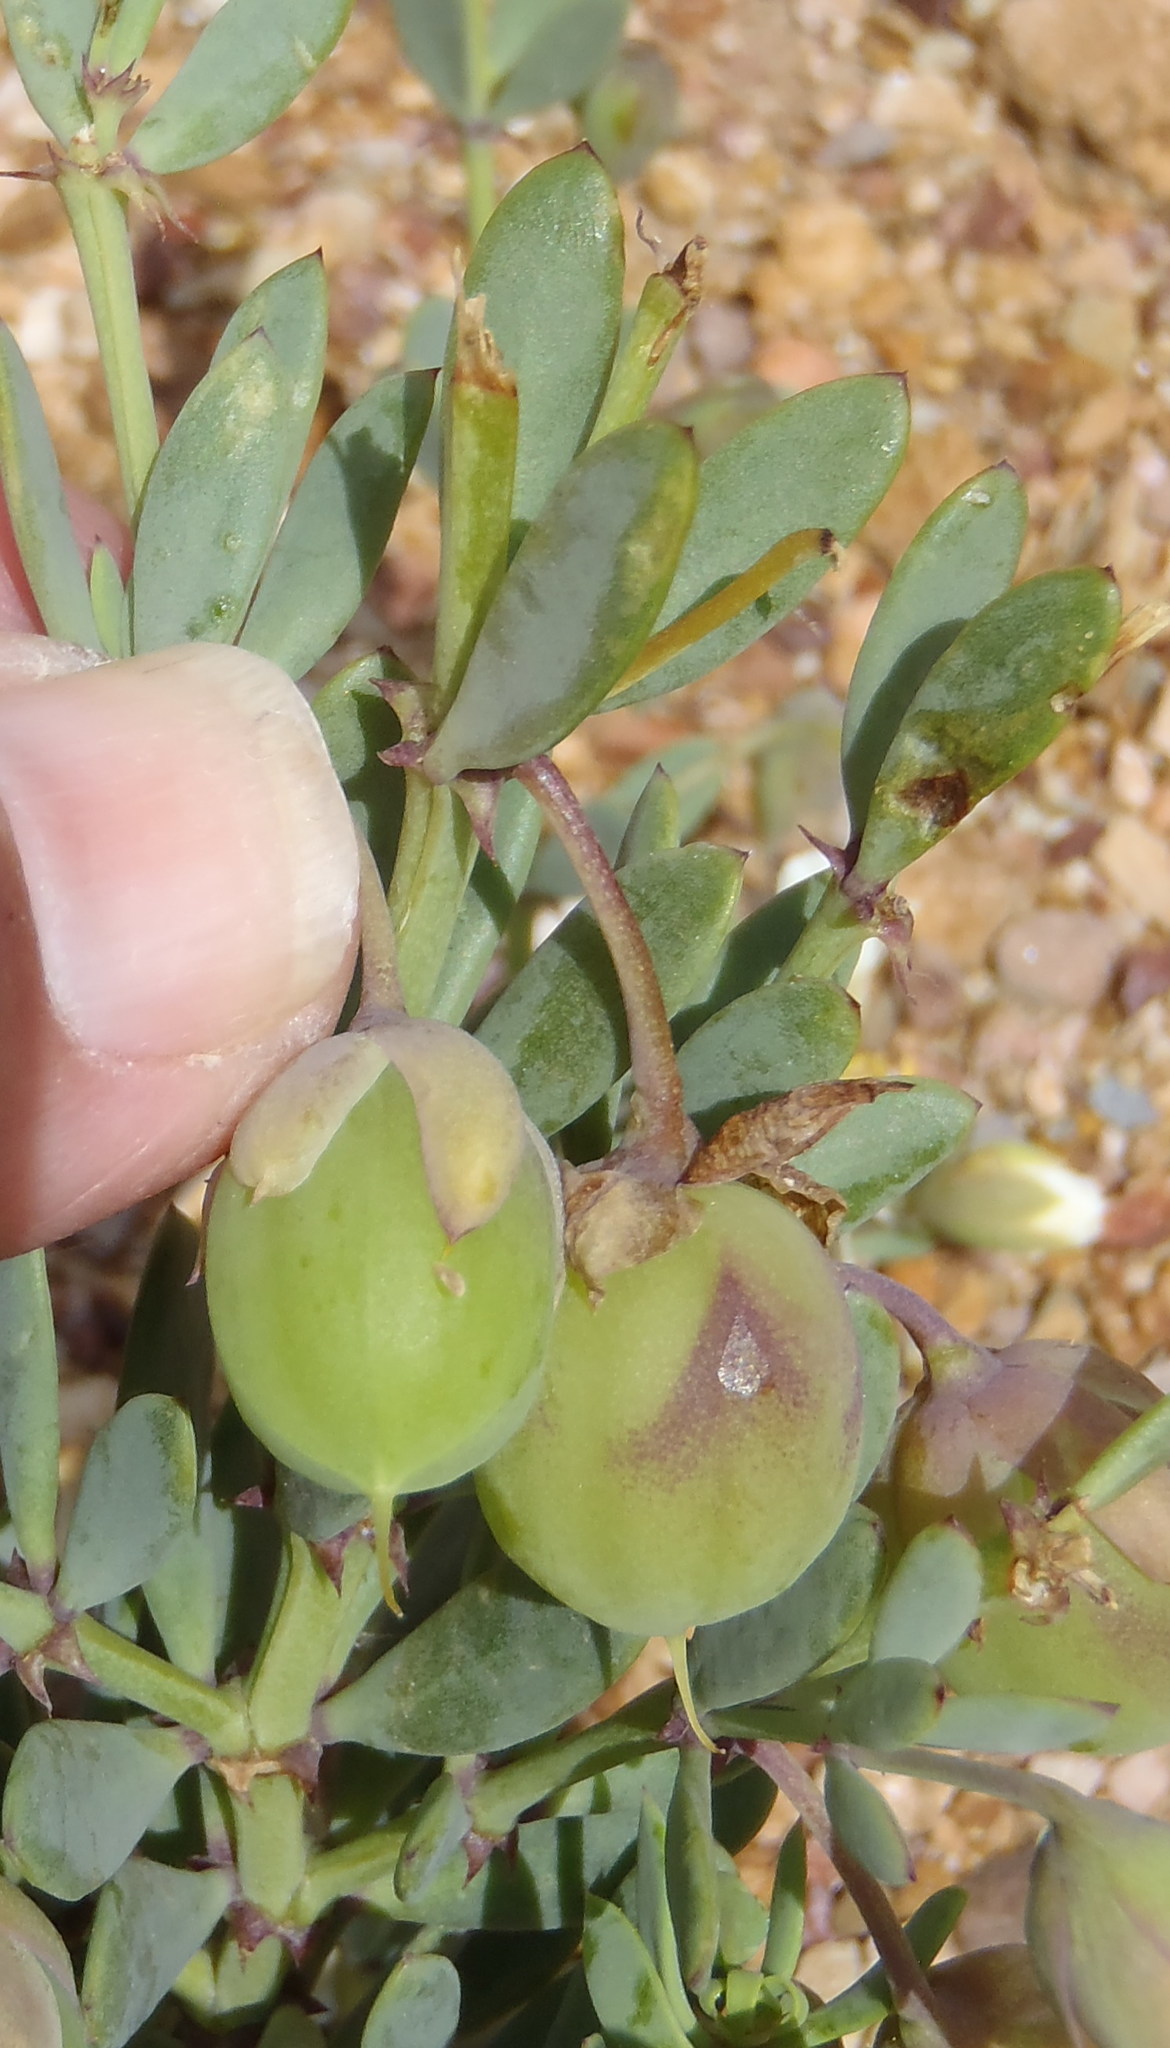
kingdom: Plantae
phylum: Tracheophyta
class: Magnoliopsida
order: Zygophyllales
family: Zygophyllaceae
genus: Roepera
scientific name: Roepera fulva
